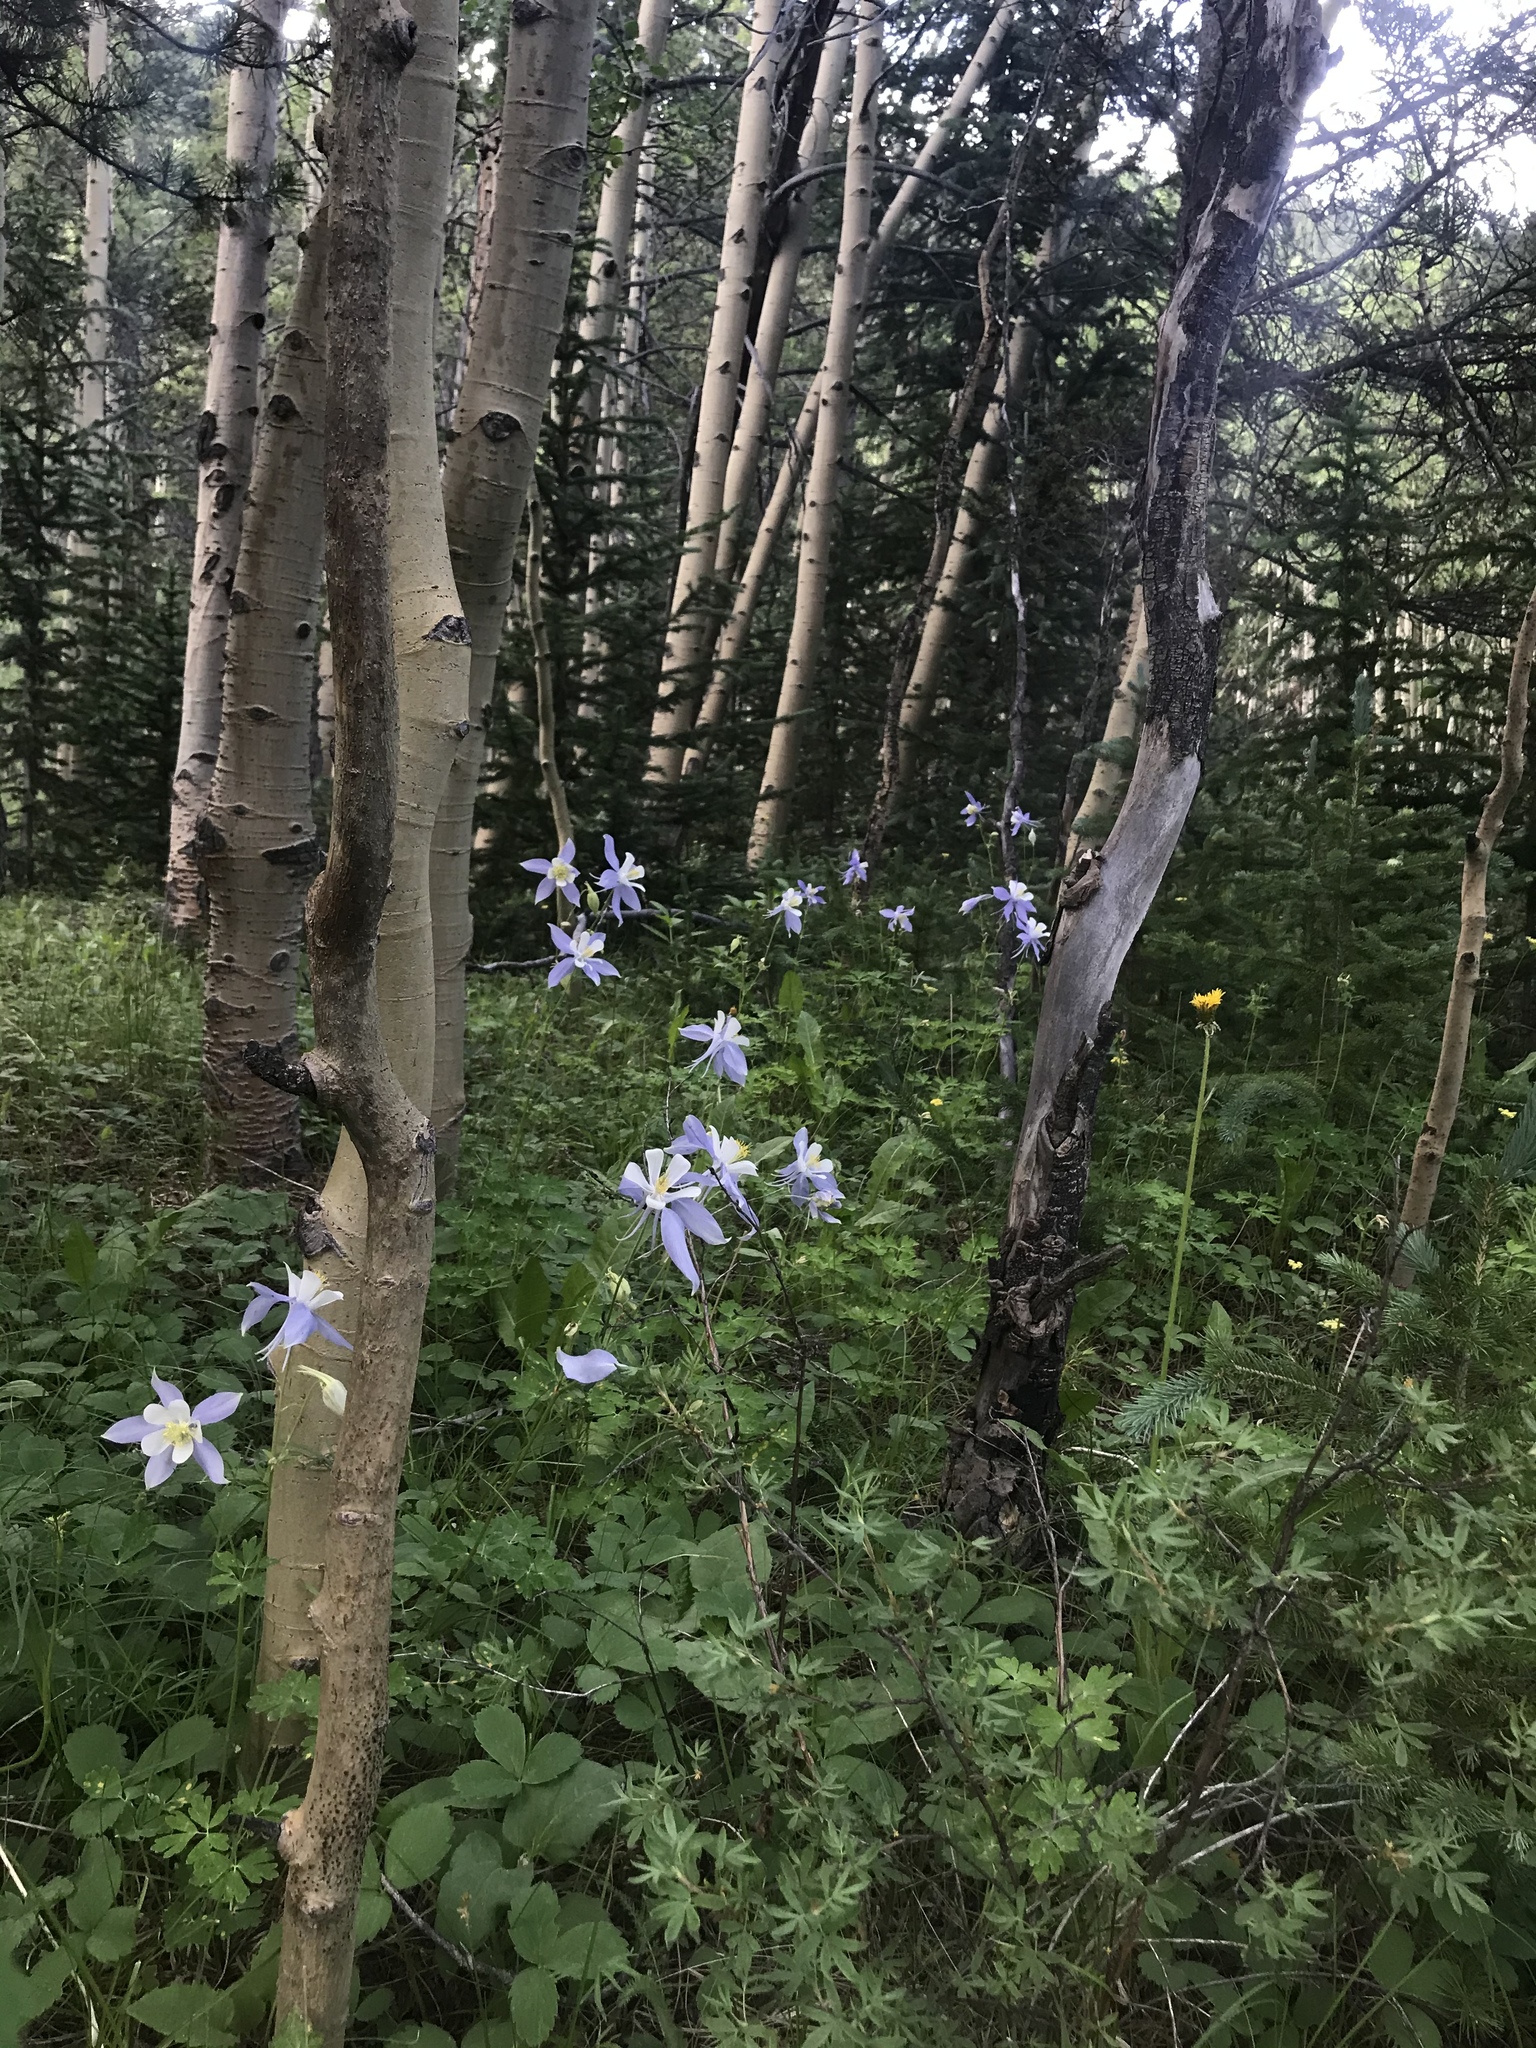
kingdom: Plantae
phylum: Tracheophyta
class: Magnoliopsida
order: Ranunculales
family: Ranunculaceae
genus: Aquilegia
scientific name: Aquilegia coerulea
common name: Rocky mountain columbine
